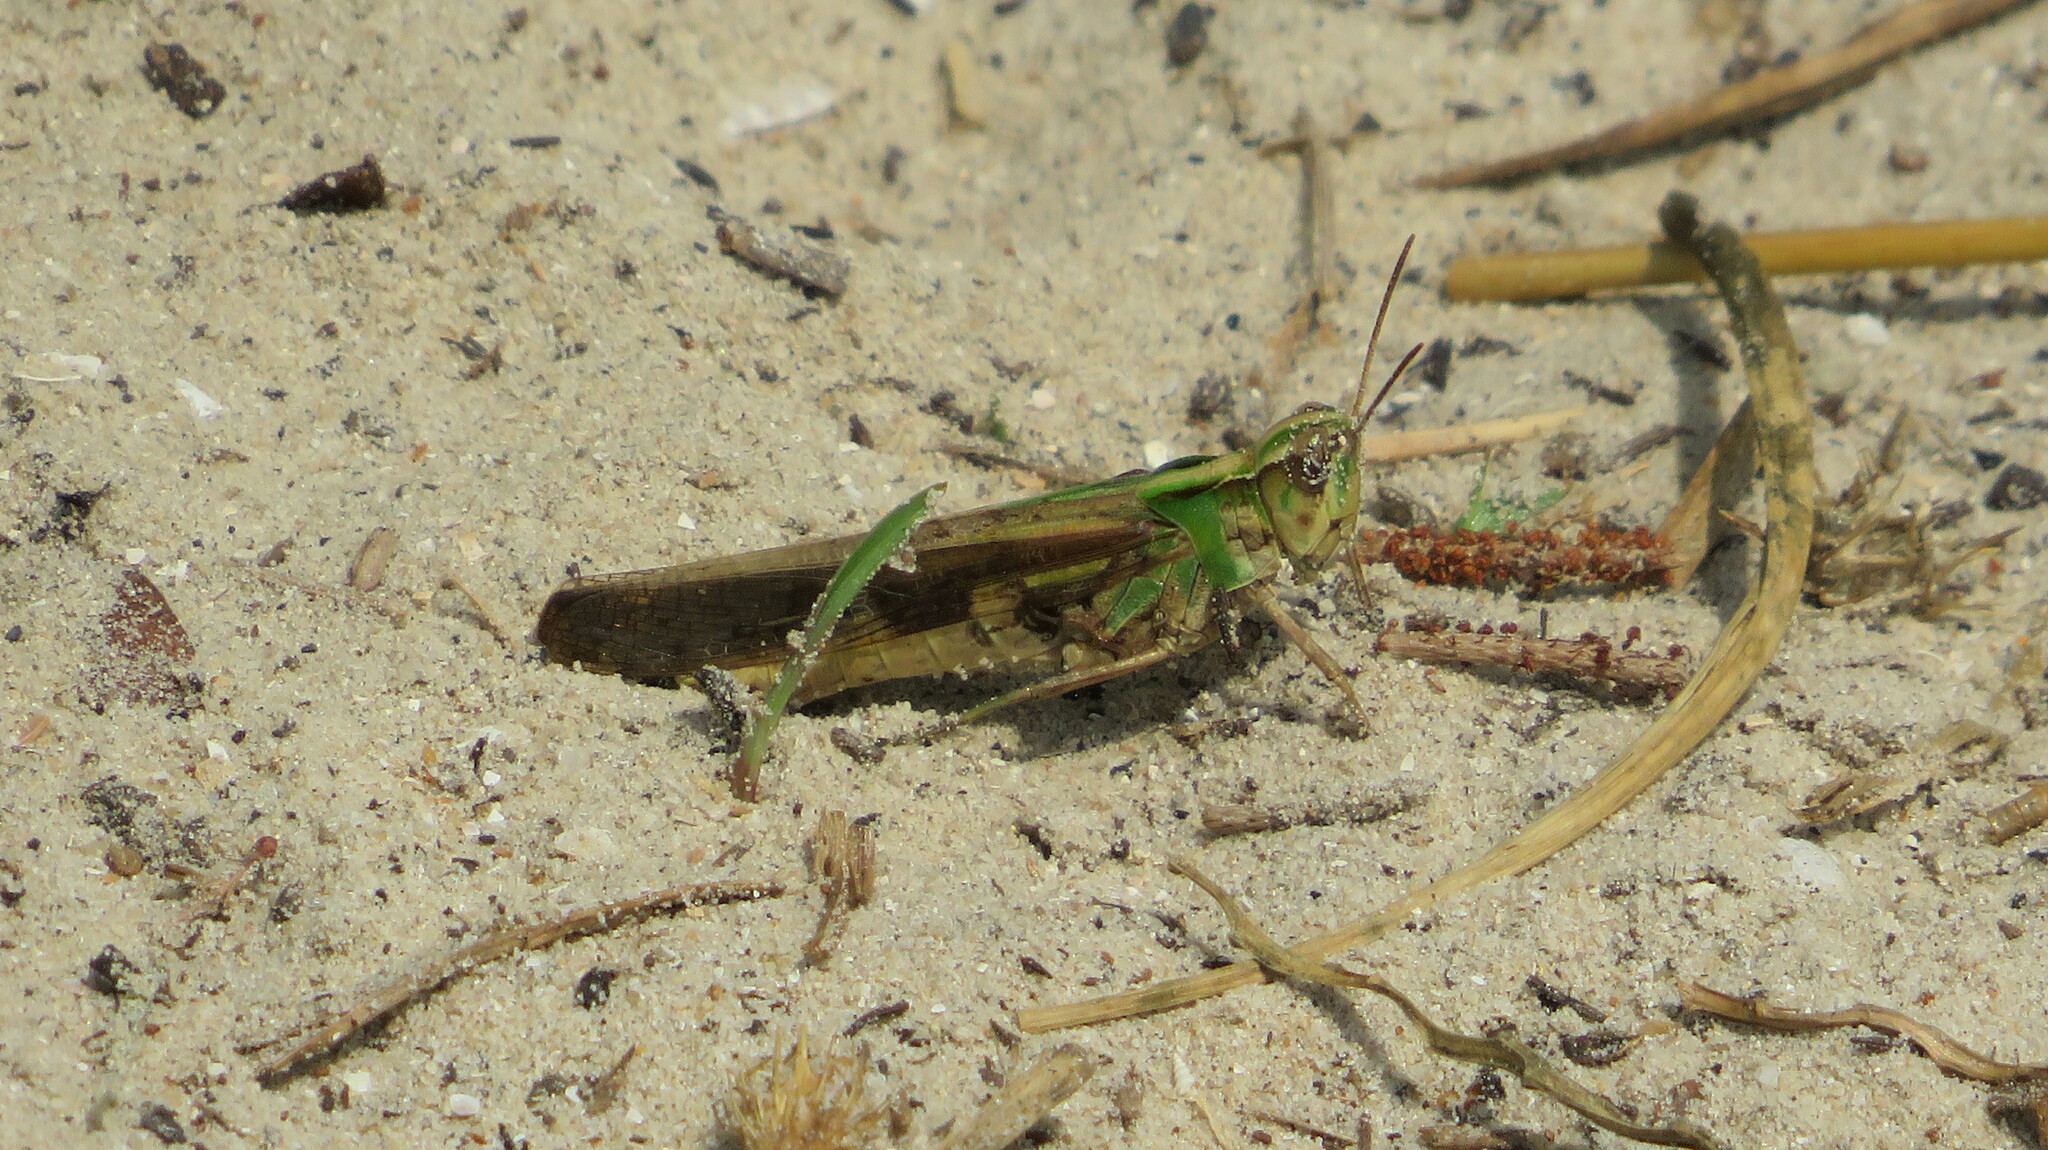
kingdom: Animalia
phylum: Arthropoda
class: Insecta
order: Orthoptera
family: Acrididae
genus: Aiolopus
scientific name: Aiolopus thalassinus
